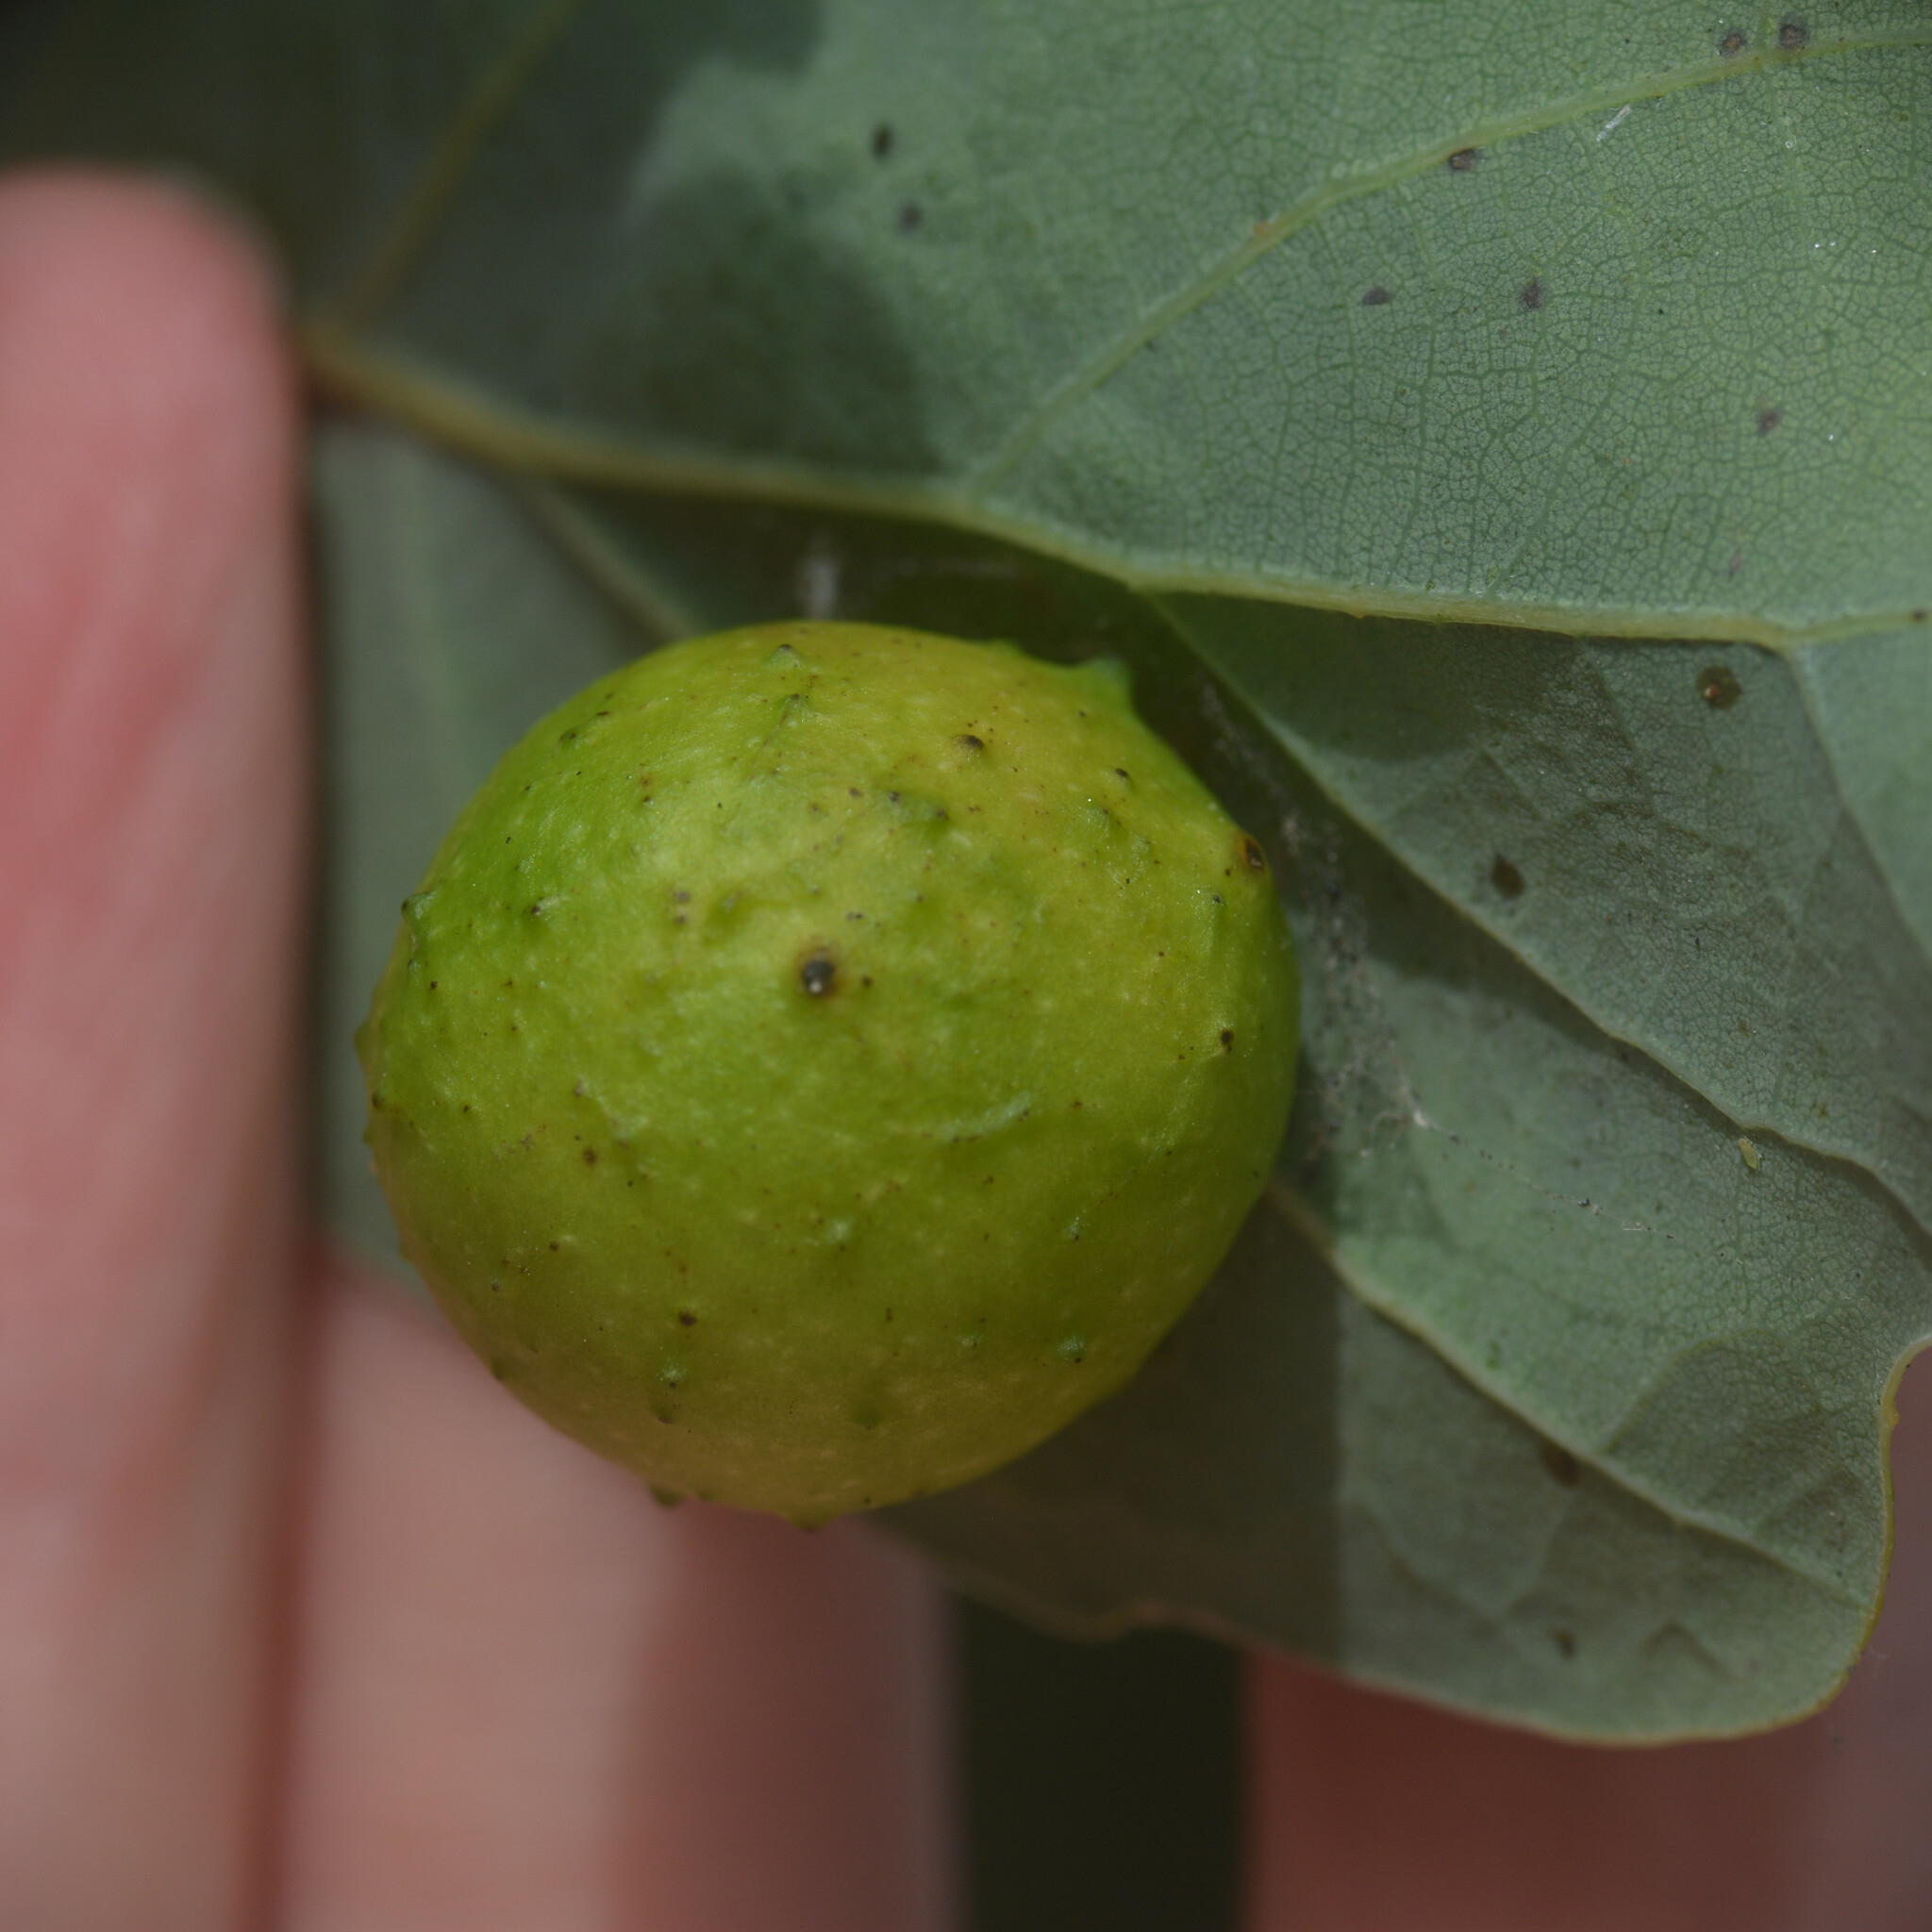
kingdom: Animalia
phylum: Arthropoda
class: Insecta
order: Hymenoptera
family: Cynipidae
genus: Cynips
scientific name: Cynips quercusfolii
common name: Cherry gall
